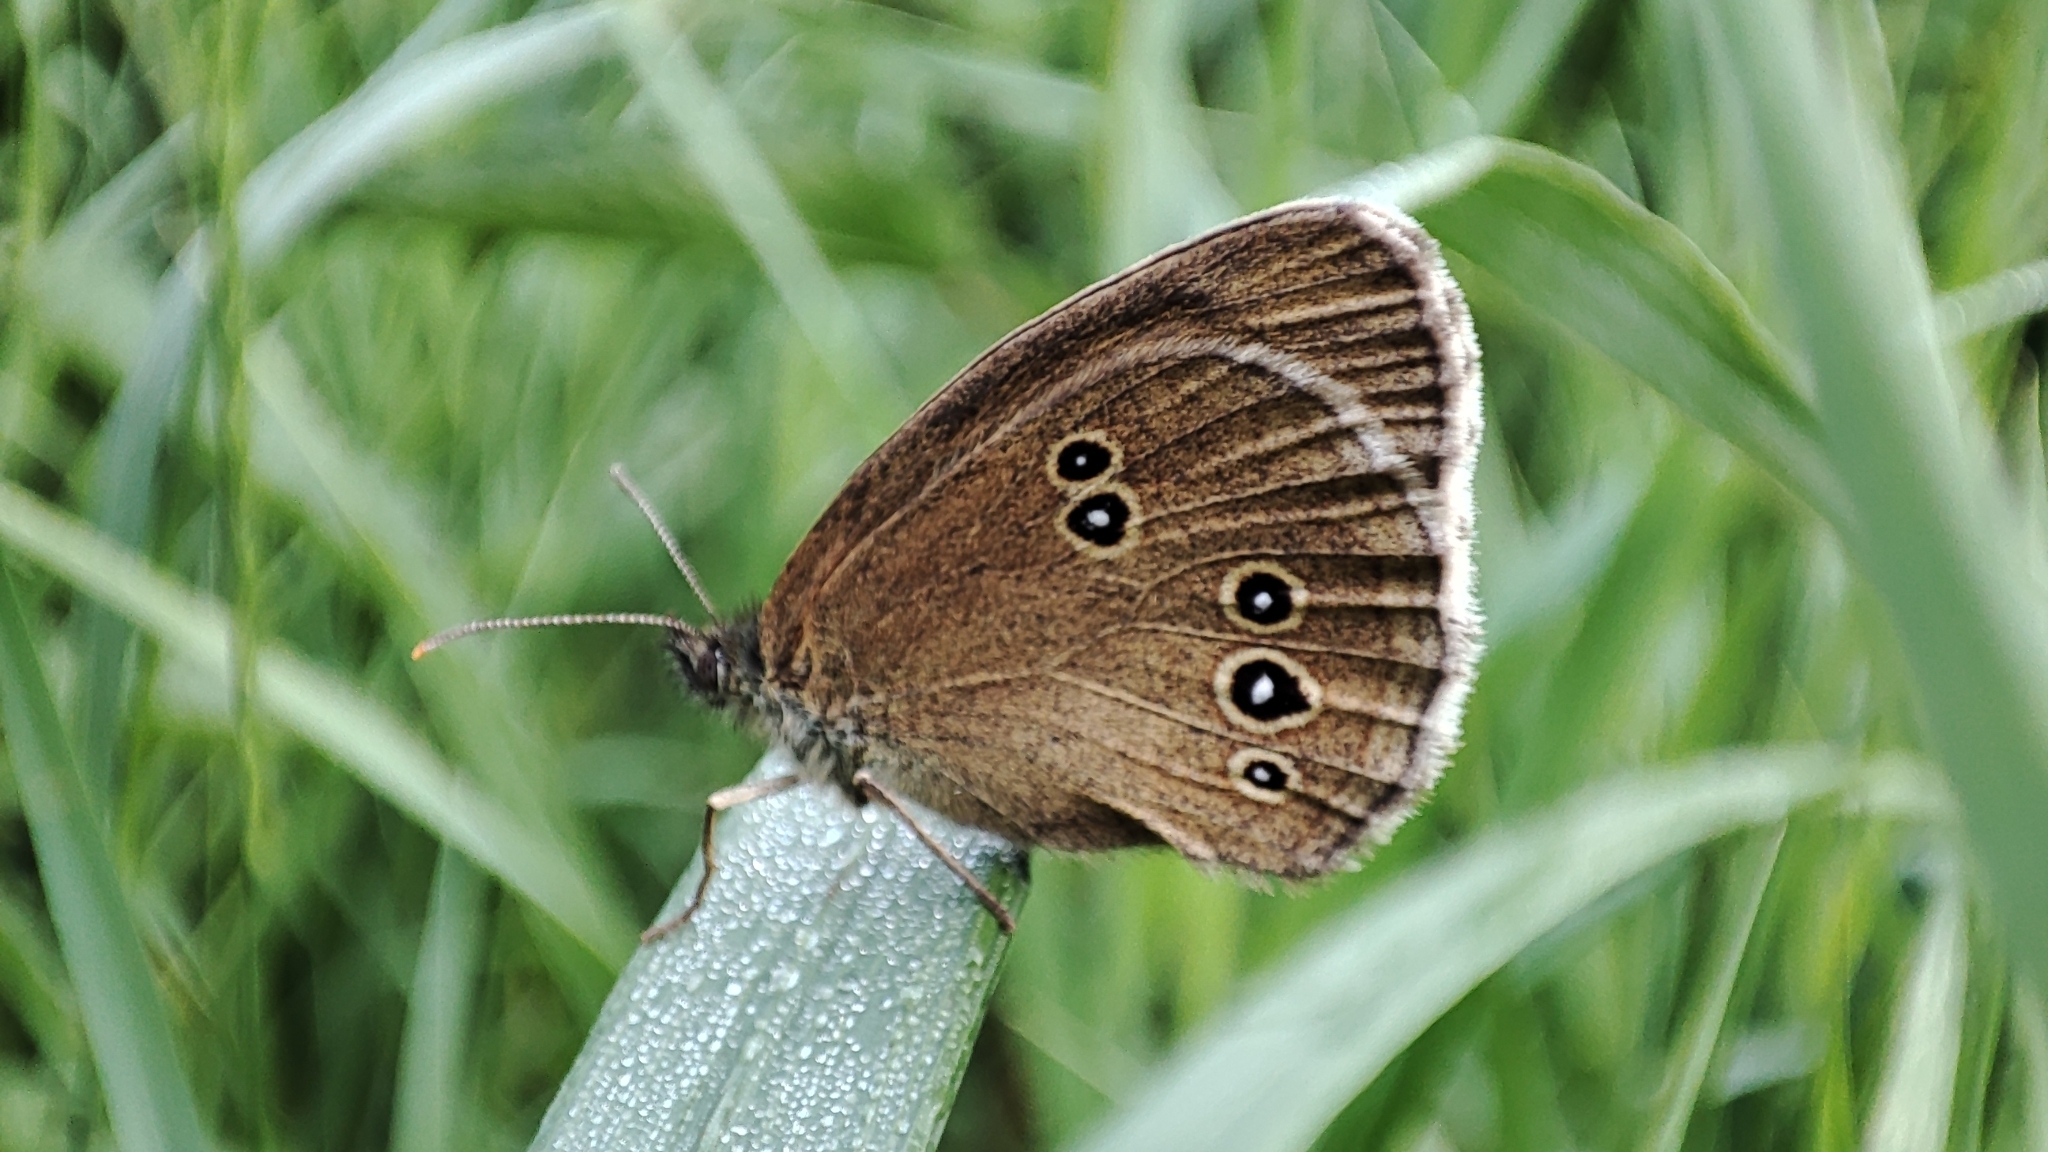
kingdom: Animalia
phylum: Arthropoda
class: Insecta
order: Lepidoptera
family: Nymphalidae
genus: Aphantopus
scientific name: Aphantopus hyperantus
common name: Ringlet
